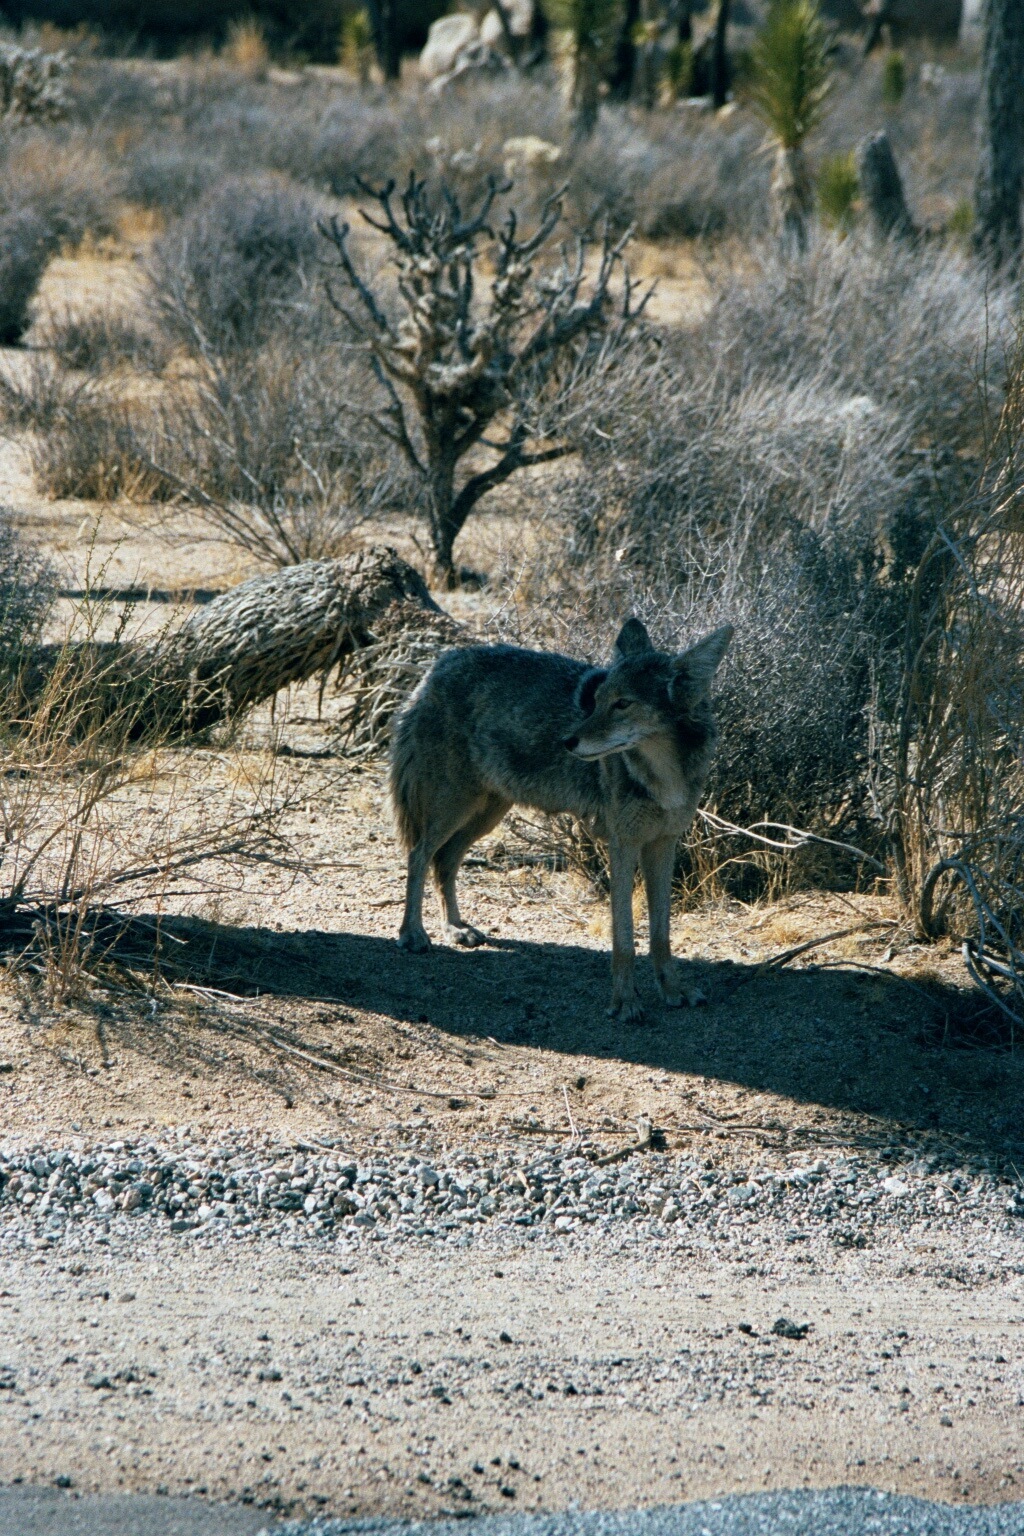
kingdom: Animalia
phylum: Chordata
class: Mammalia
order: Carnivora
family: Canidae
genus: Canis
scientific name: Canis latrans
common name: Coyote
